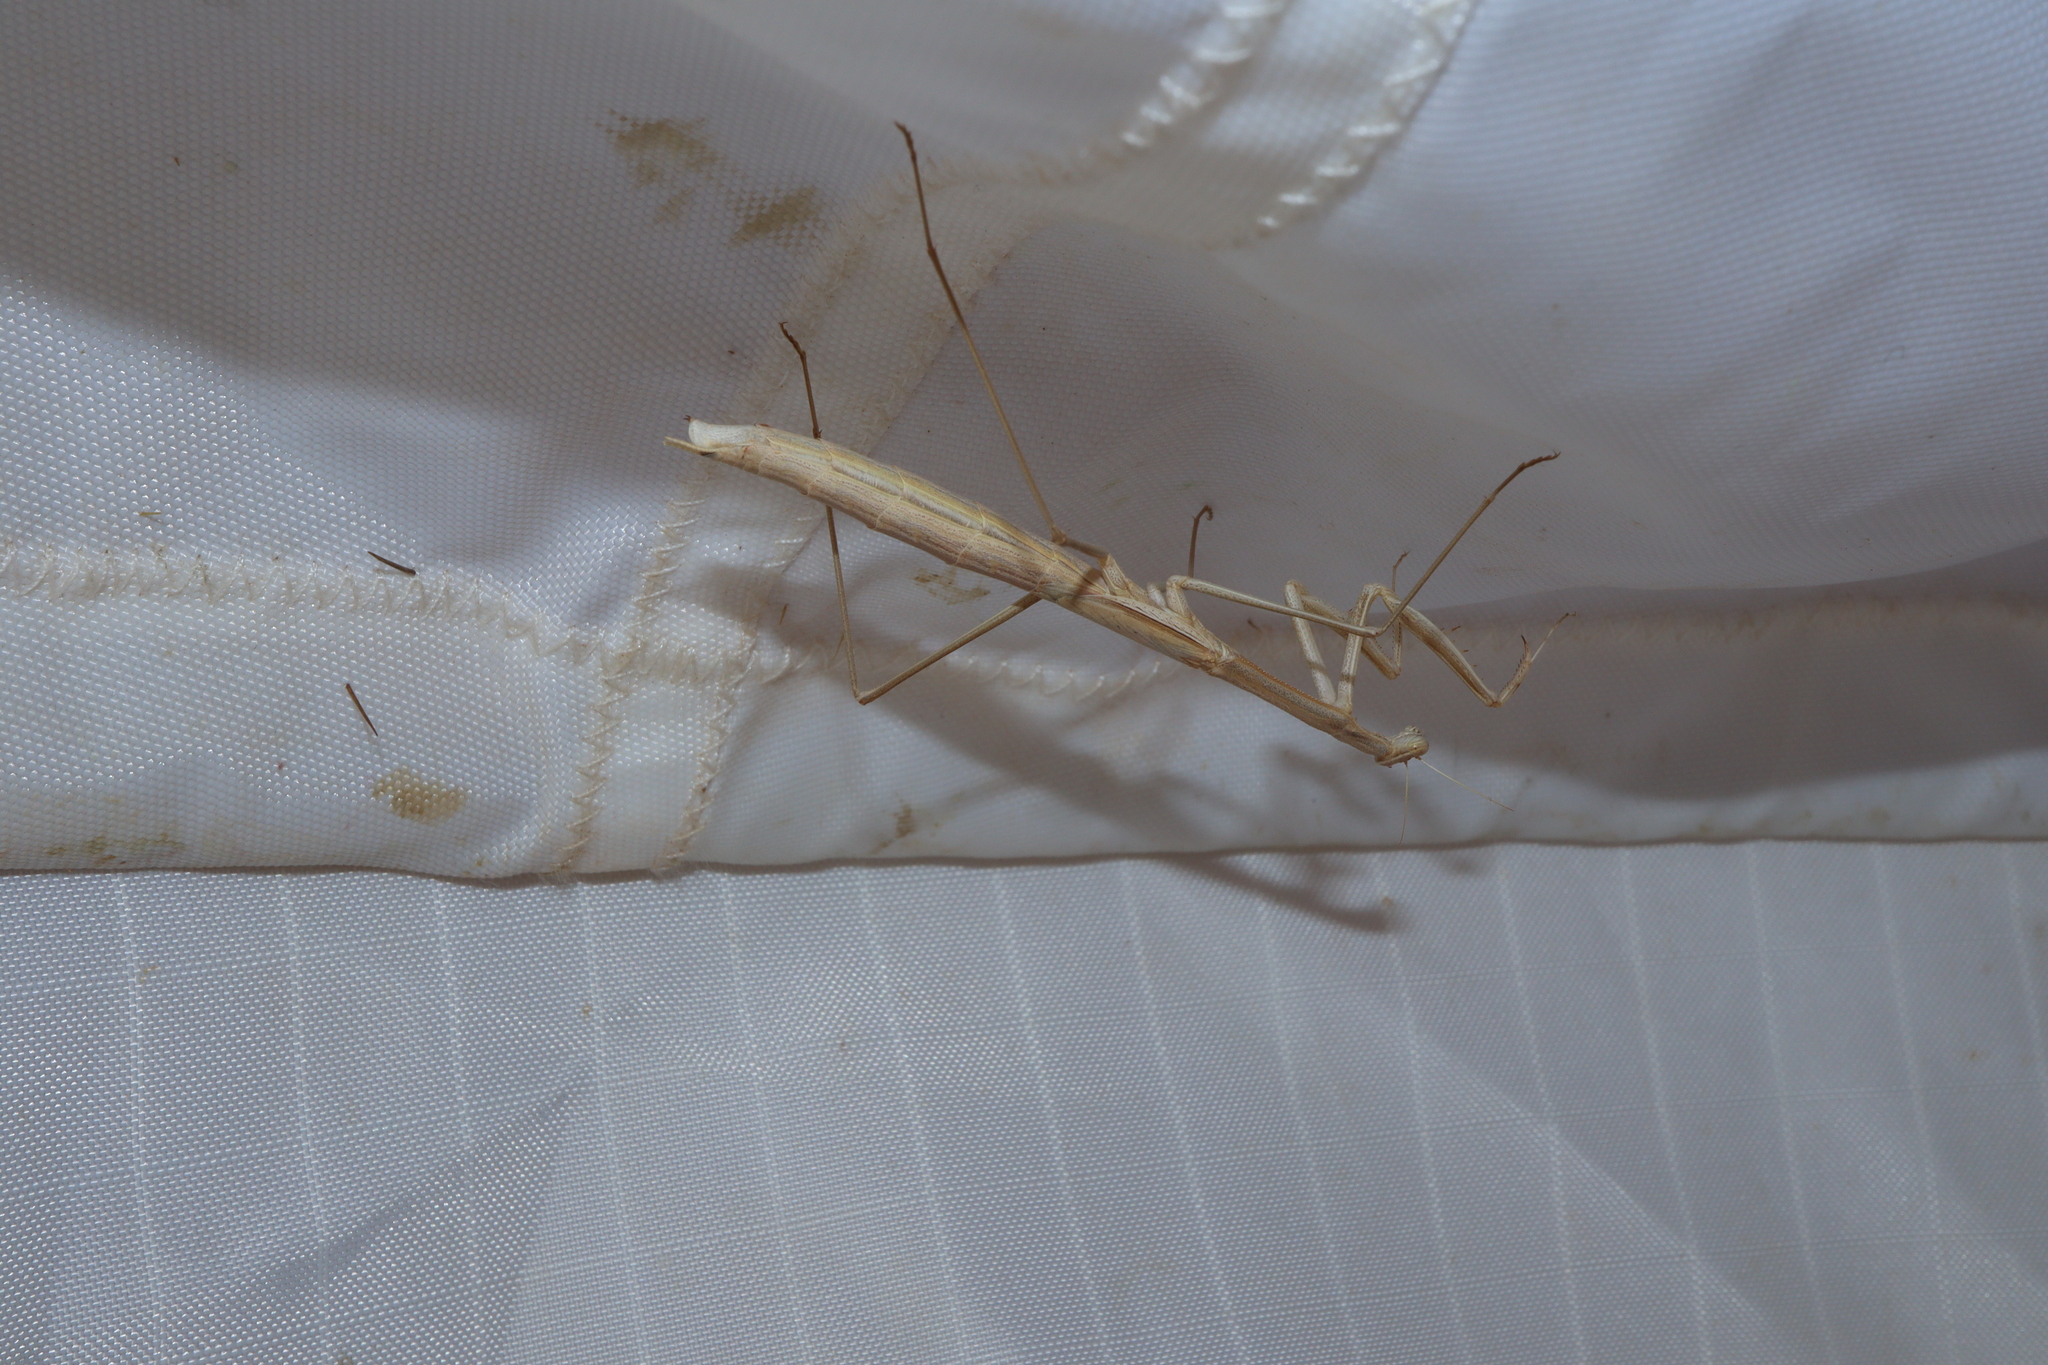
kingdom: Animalia
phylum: Arthropoda
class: Insecta
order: Mantodea
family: Mantidae
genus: Rhodomantis
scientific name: Rhodomantis disparilis
